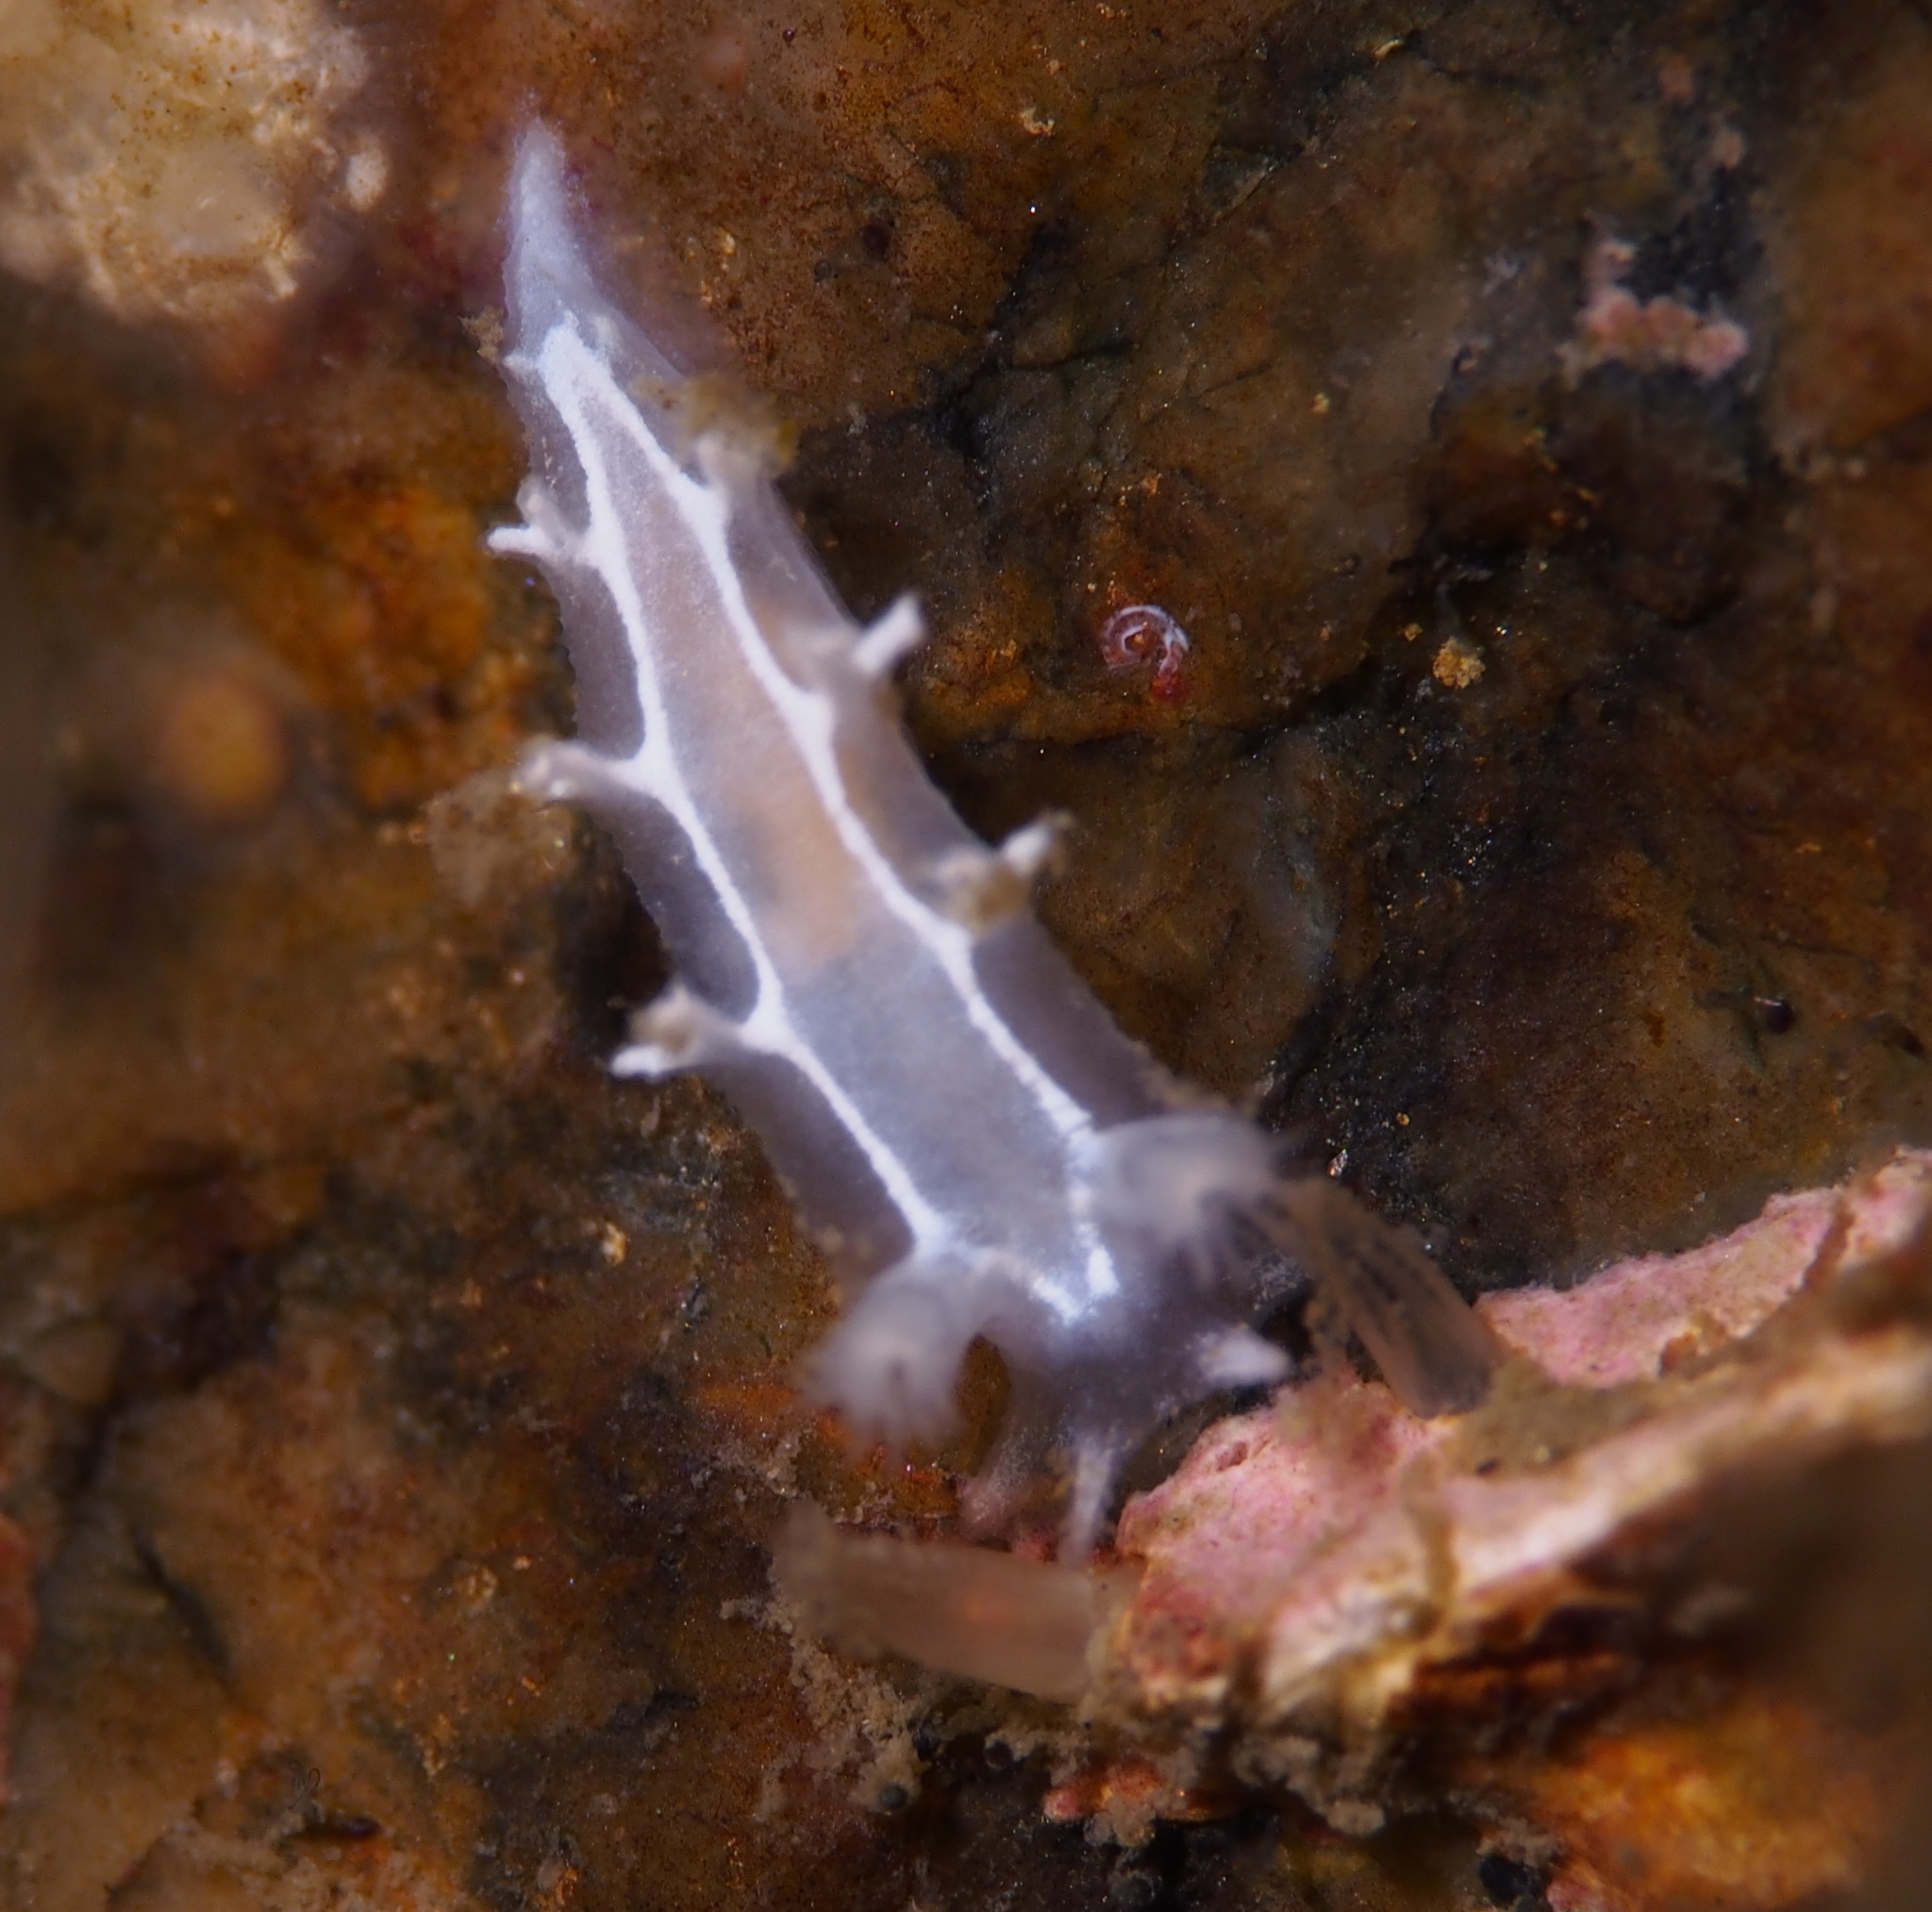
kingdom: Animalia
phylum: Mollusca
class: Gastropoda
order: Nudibranchia
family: Tritoniidae
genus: Duvaucelia
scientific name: Duvaucelia lineata
